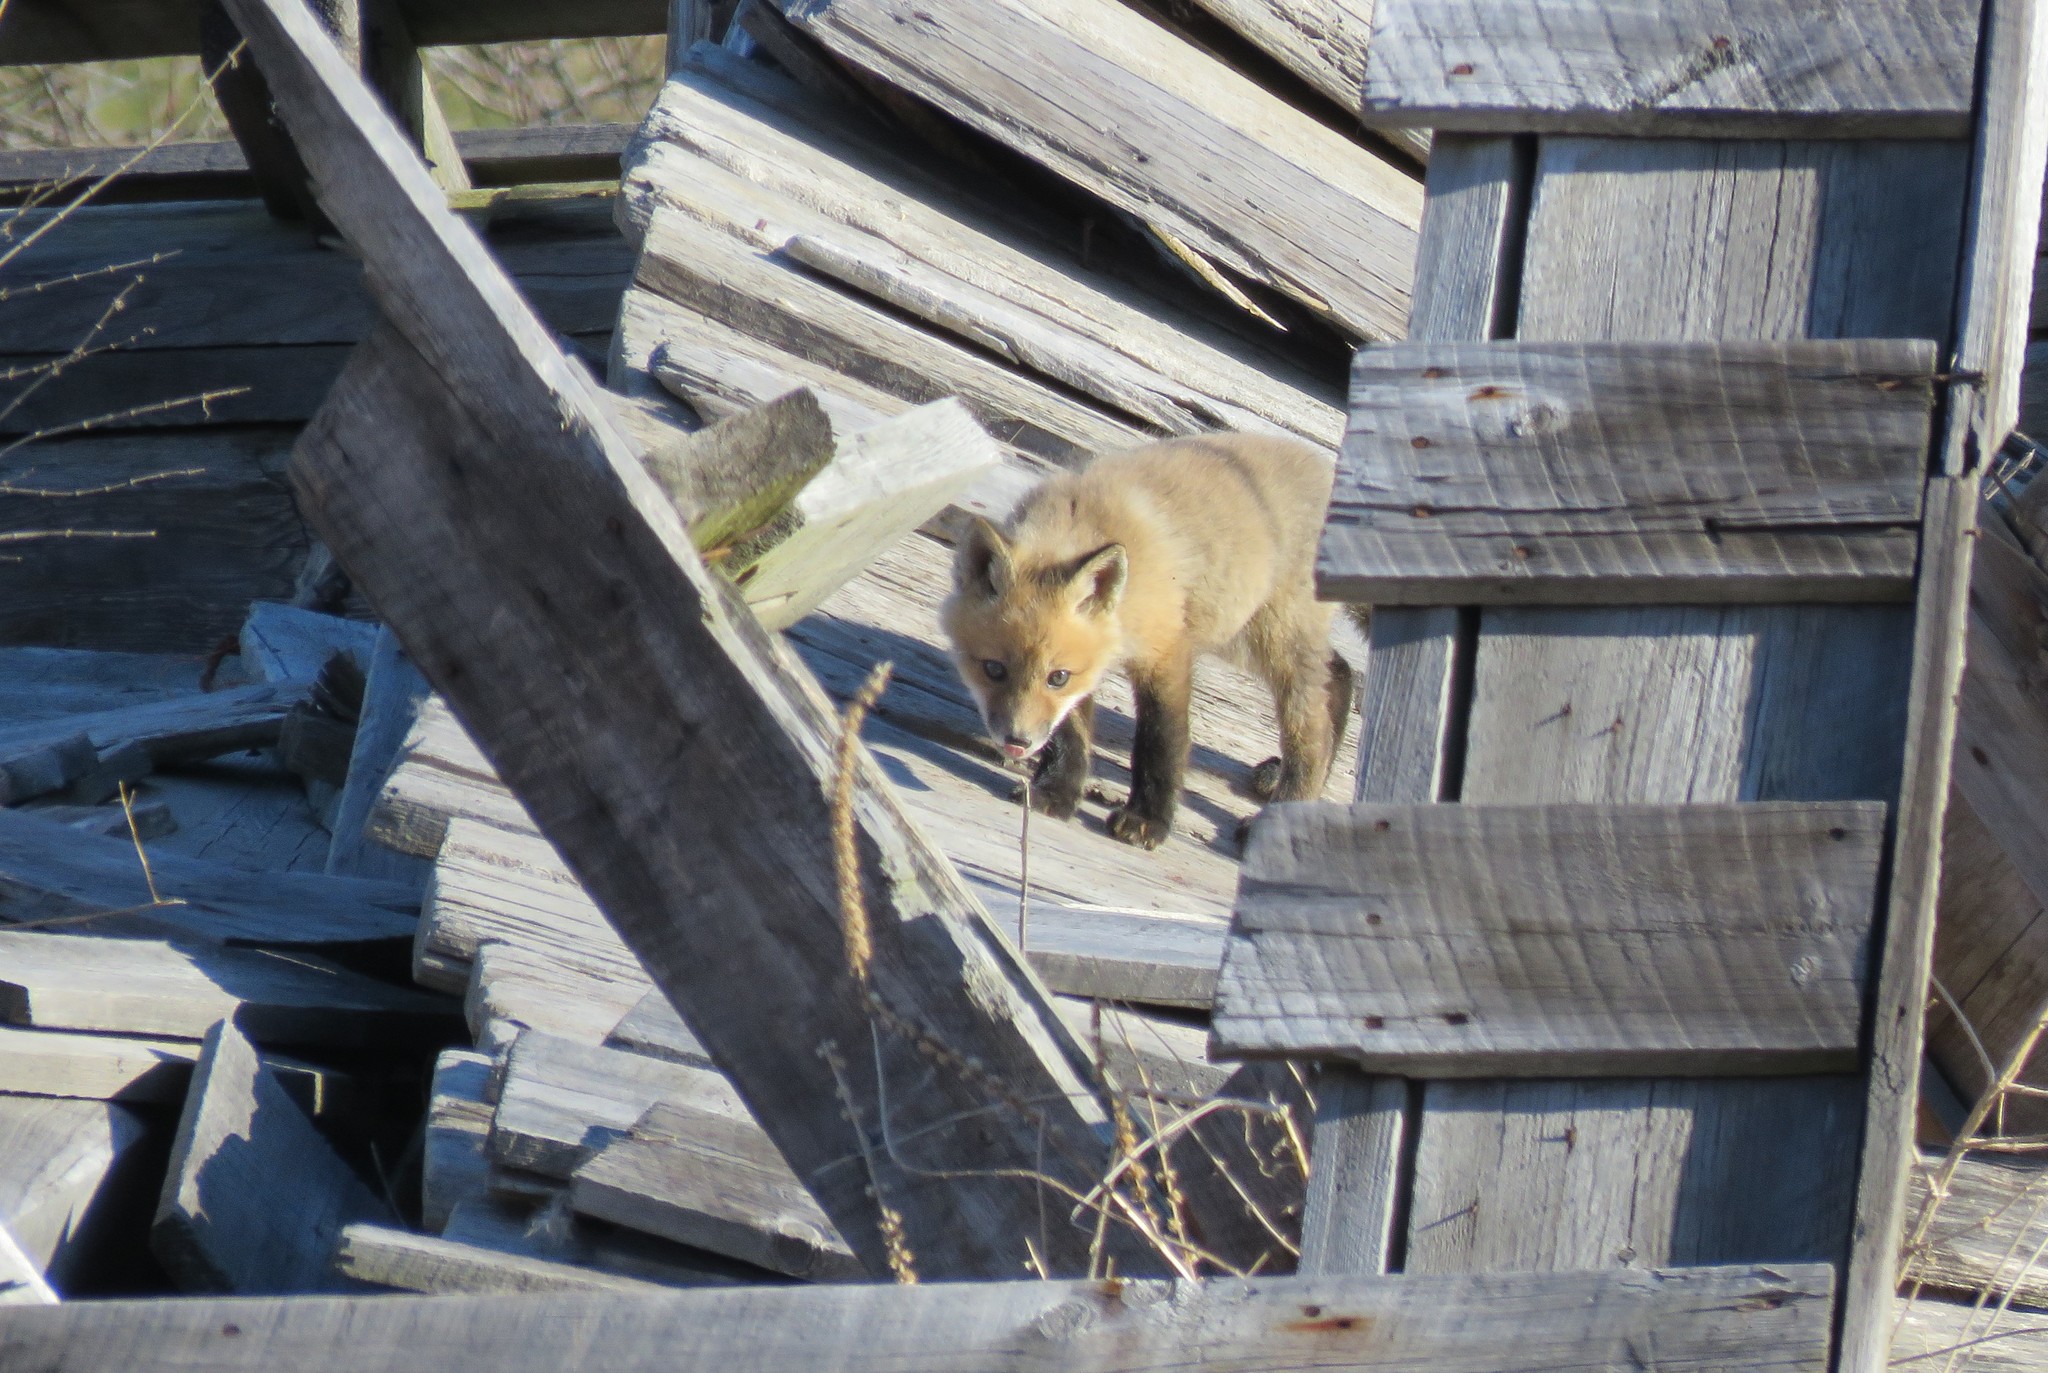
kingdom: Animalia
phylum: Chordata
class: Mammalia
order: Carnivora
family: Canidae
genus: Vulpes
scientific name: Vulpes vulpes
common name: Red fox
